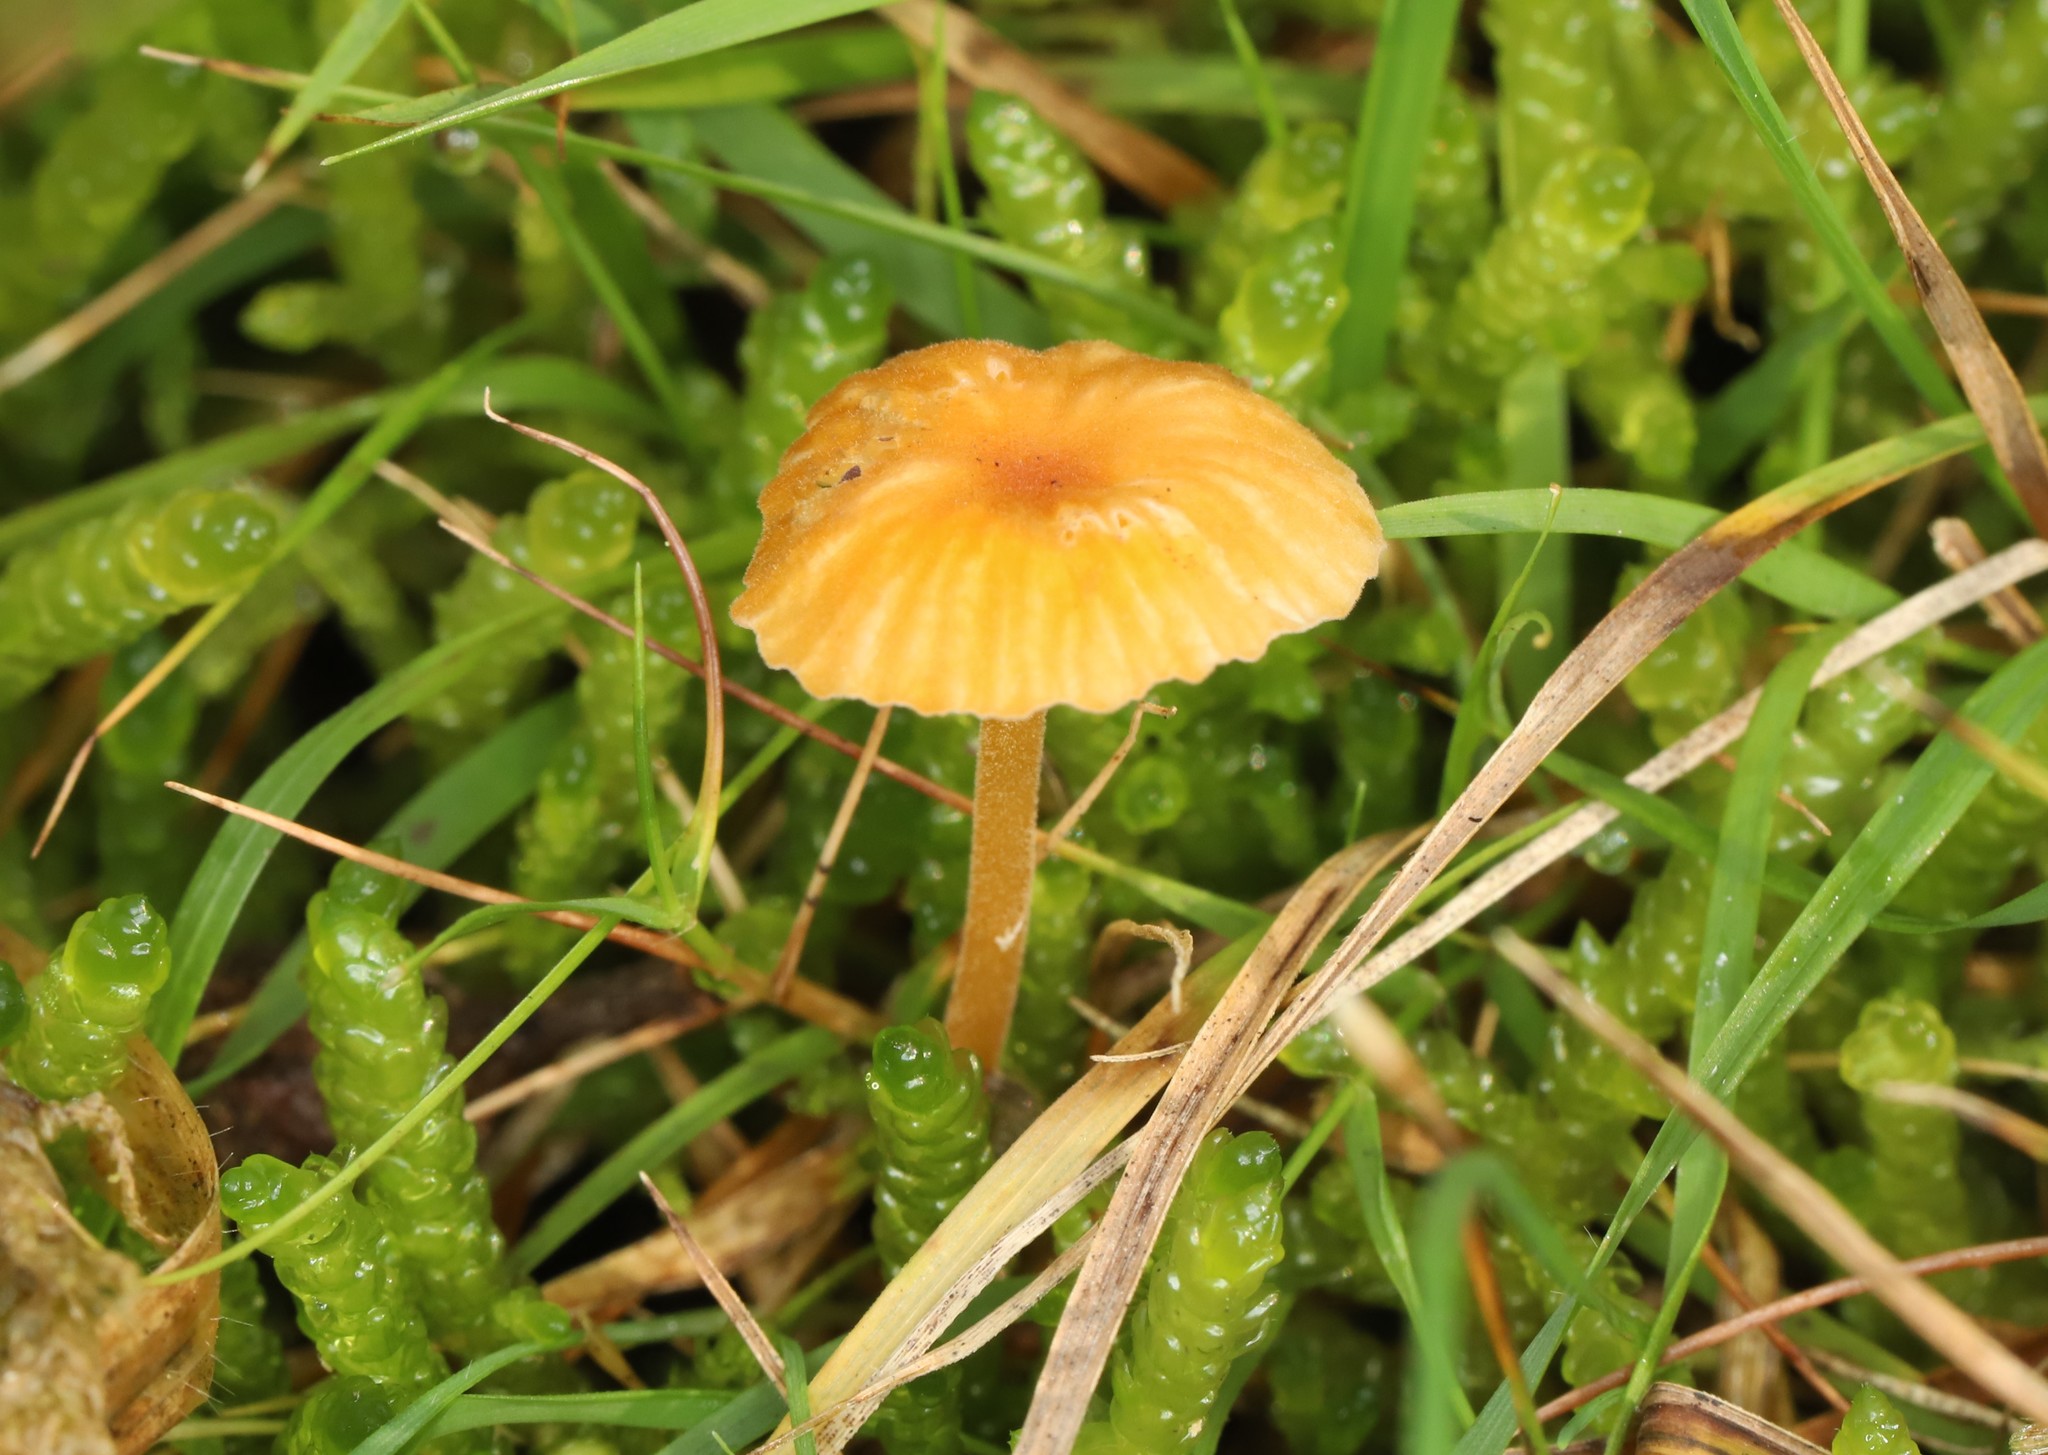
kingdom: Fungi
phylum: Basidiomycota
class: Agaricomycetes
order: Hymenochaetales
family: Rickenellaceae
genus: Rickenella
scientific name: Rickenella fibula
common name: Orange mosscap
